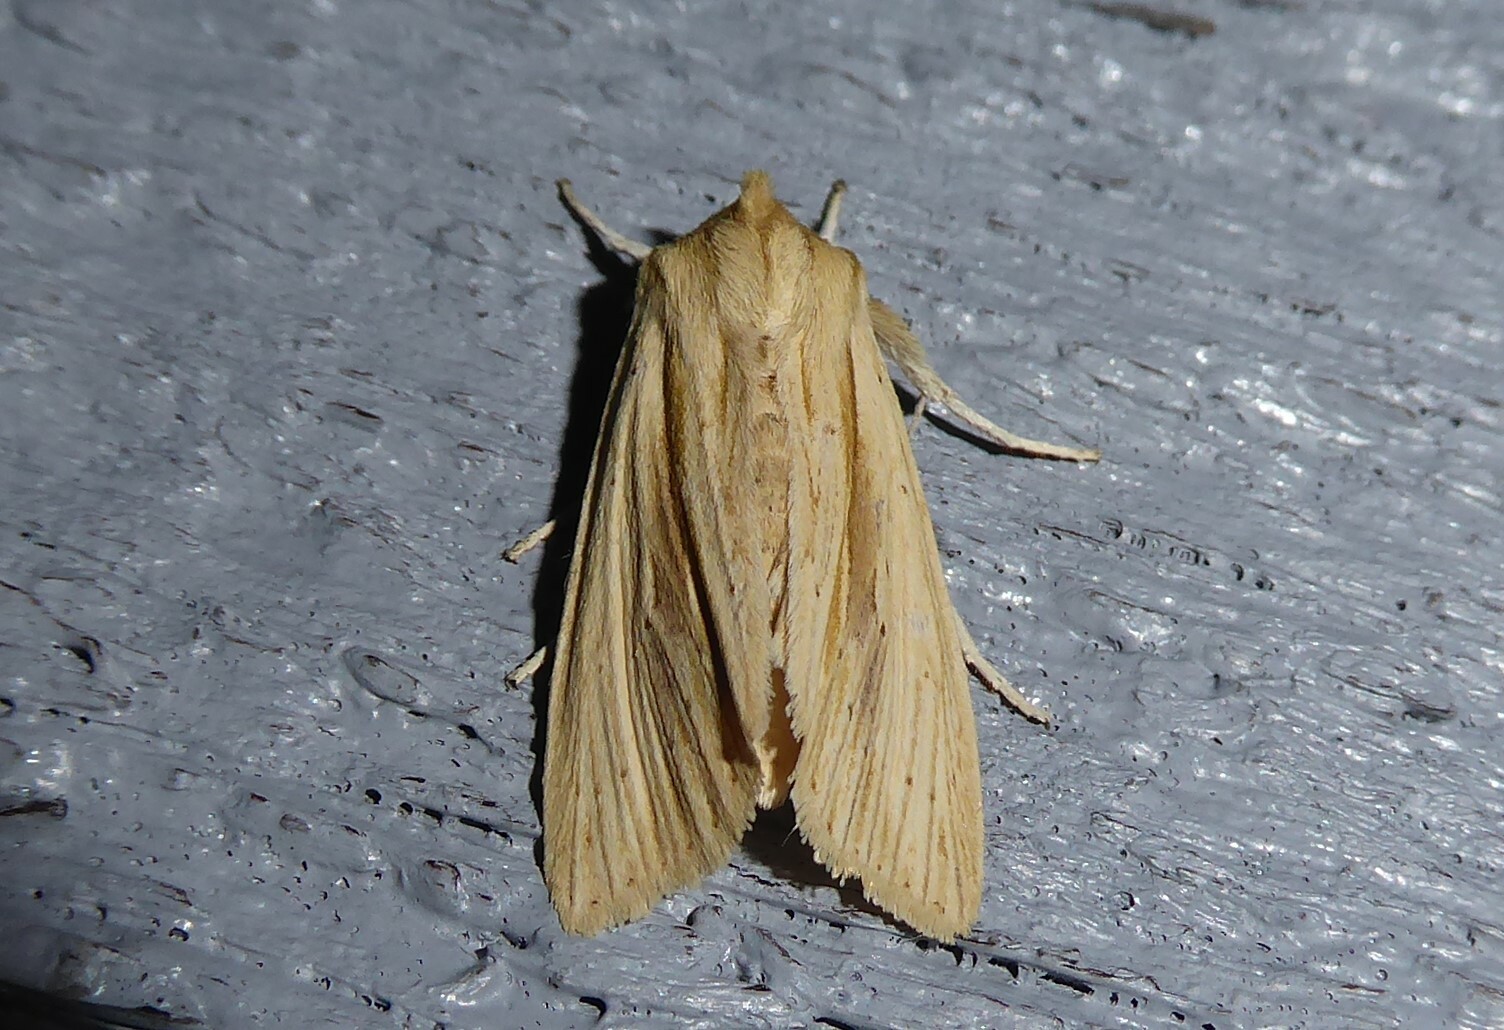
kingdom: Animalia
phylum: Arthropoda
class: Insecta
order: Lepidoptera
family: Noctuidae
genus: Ichneutica
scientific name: Ichneutica semivittata
